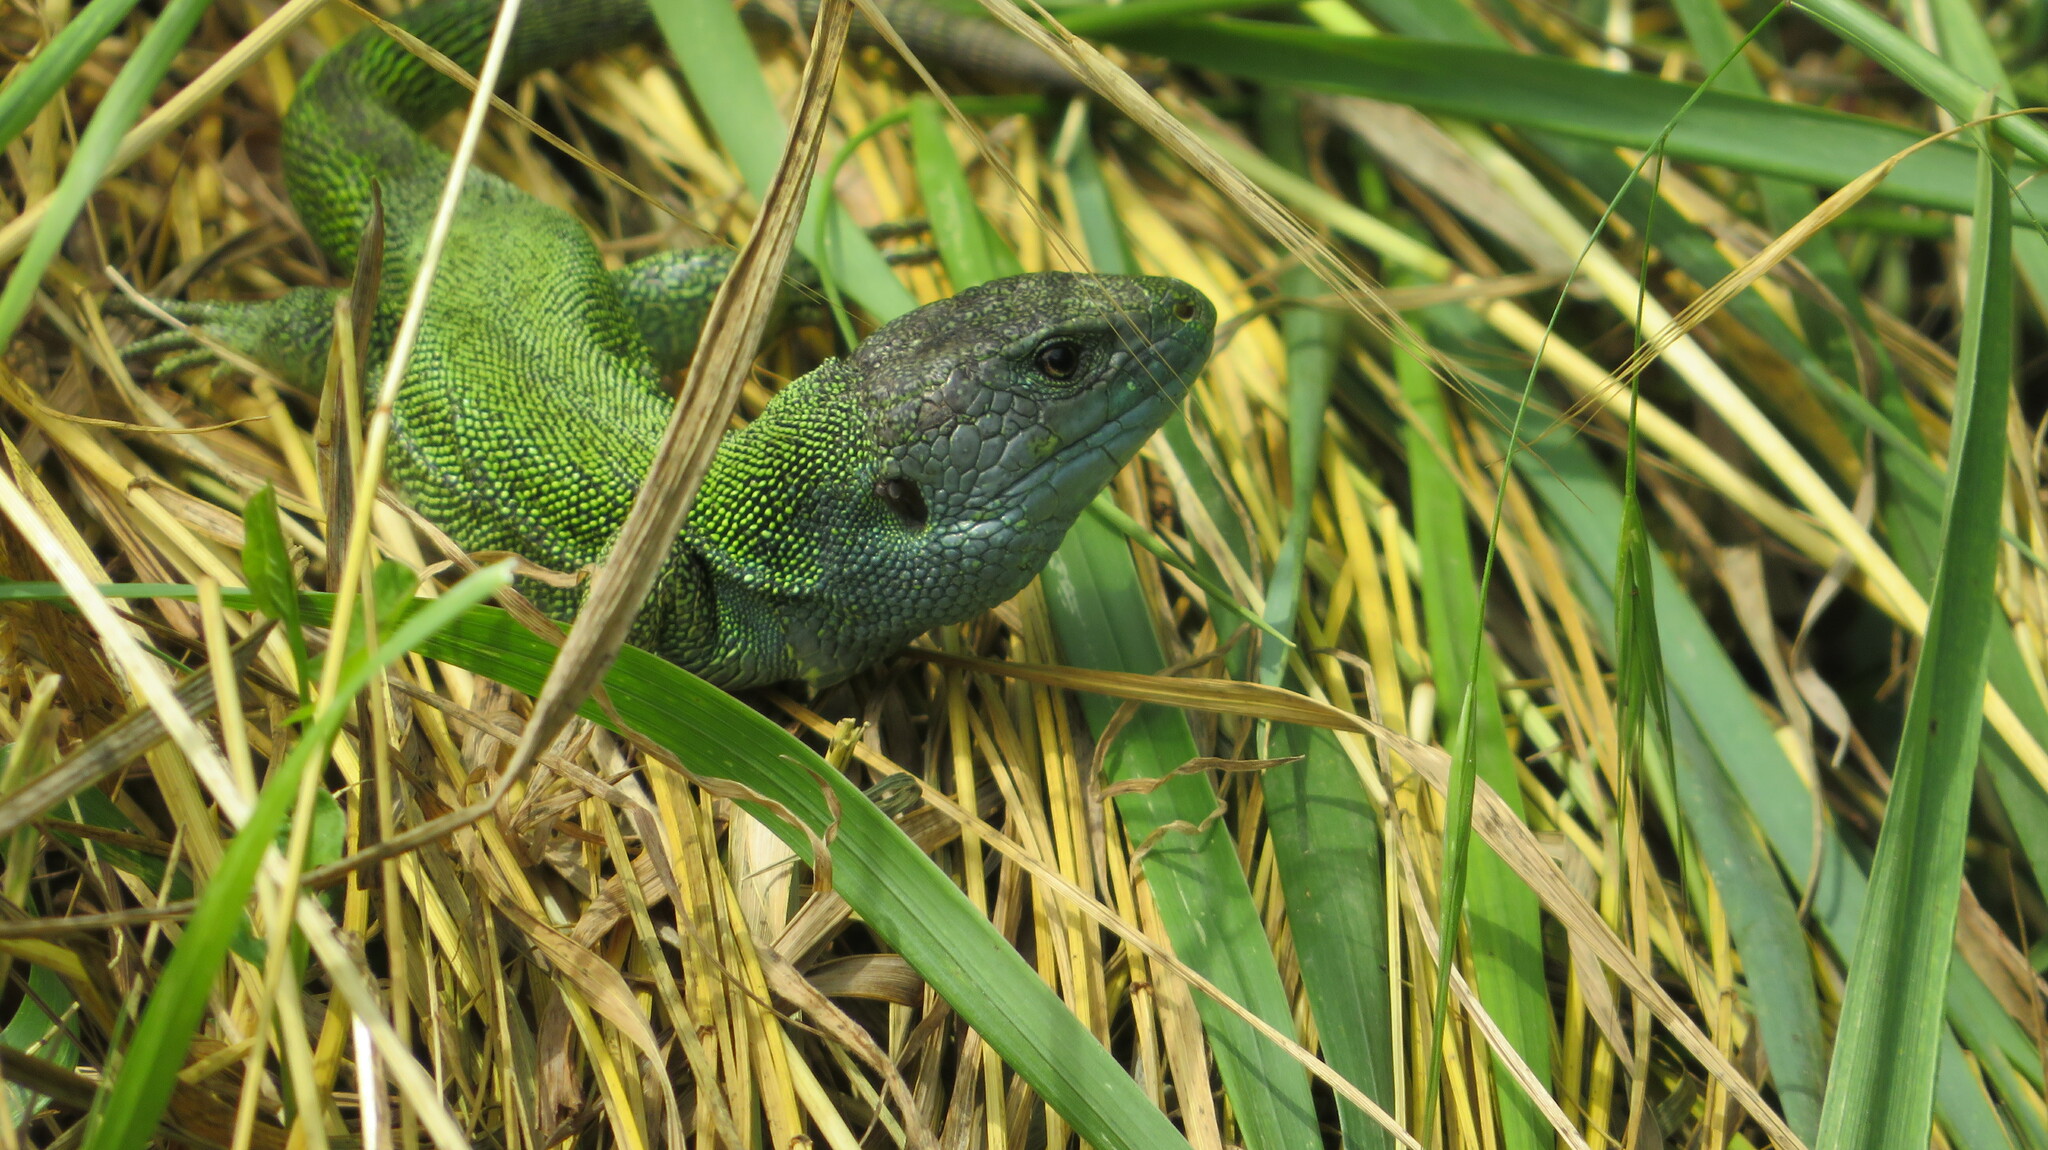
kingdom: Animalia
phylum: Chordata
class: Squamata
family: Lacertidae
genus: Lacerta
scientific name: Lacerta agilis
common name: Sand lizard
